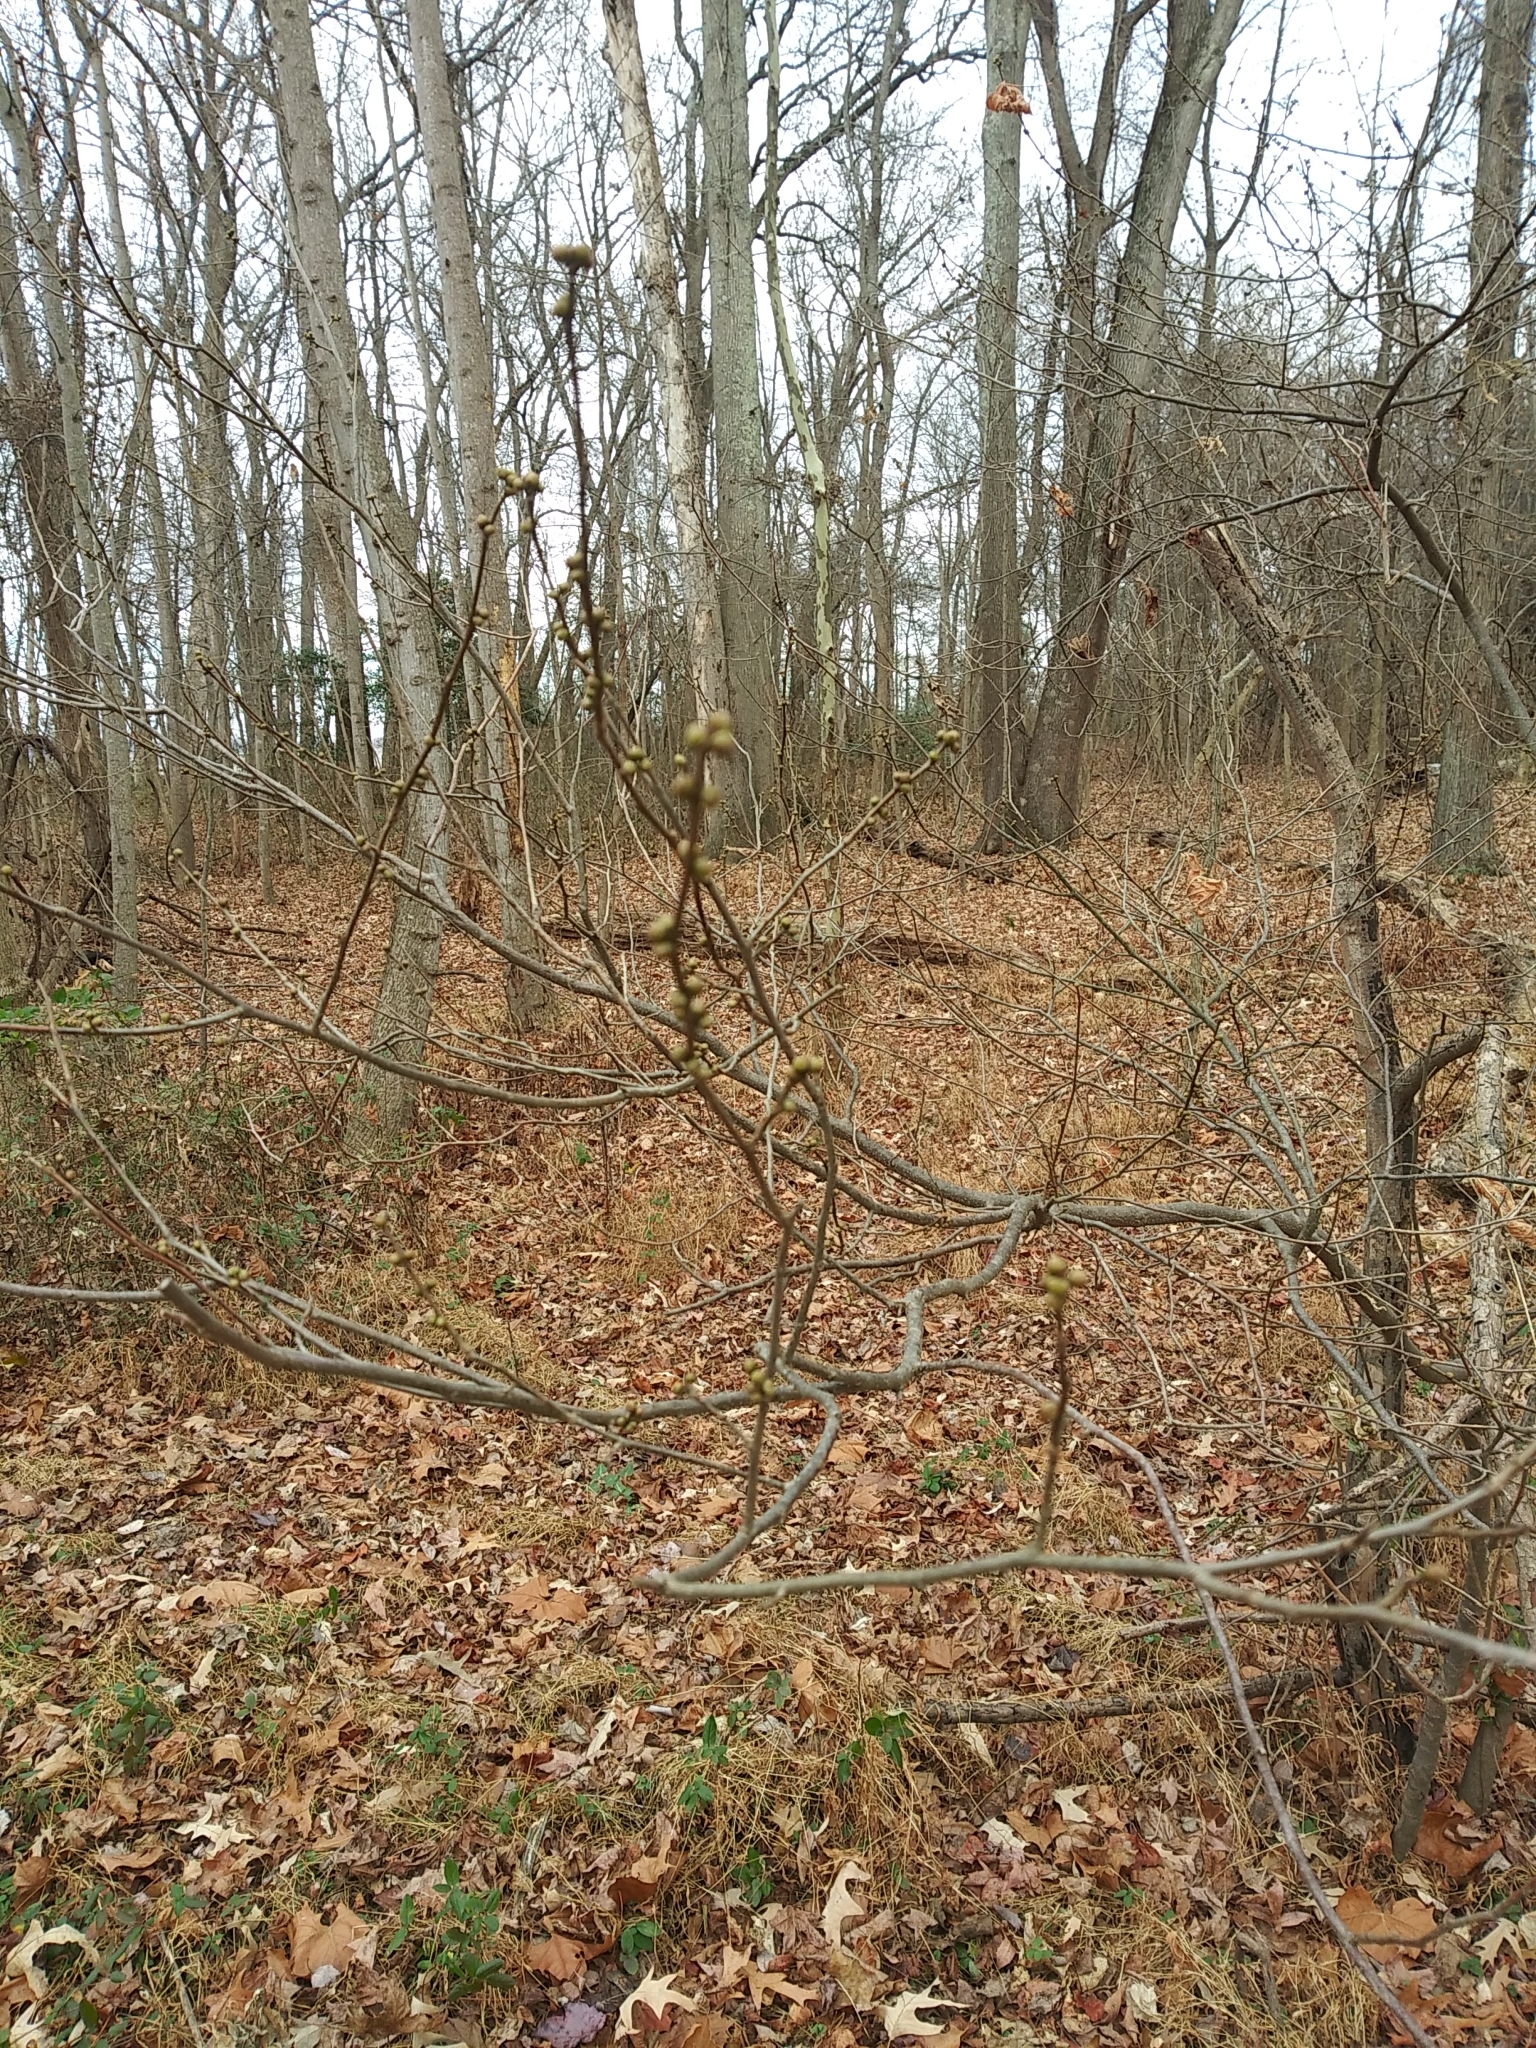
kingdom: Plantae
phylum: Tracheophyta
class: Magnoliopsida
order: Laurales
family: Lauraceae
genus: Lindera
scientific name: Lindera benzoin
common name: Spicebush
